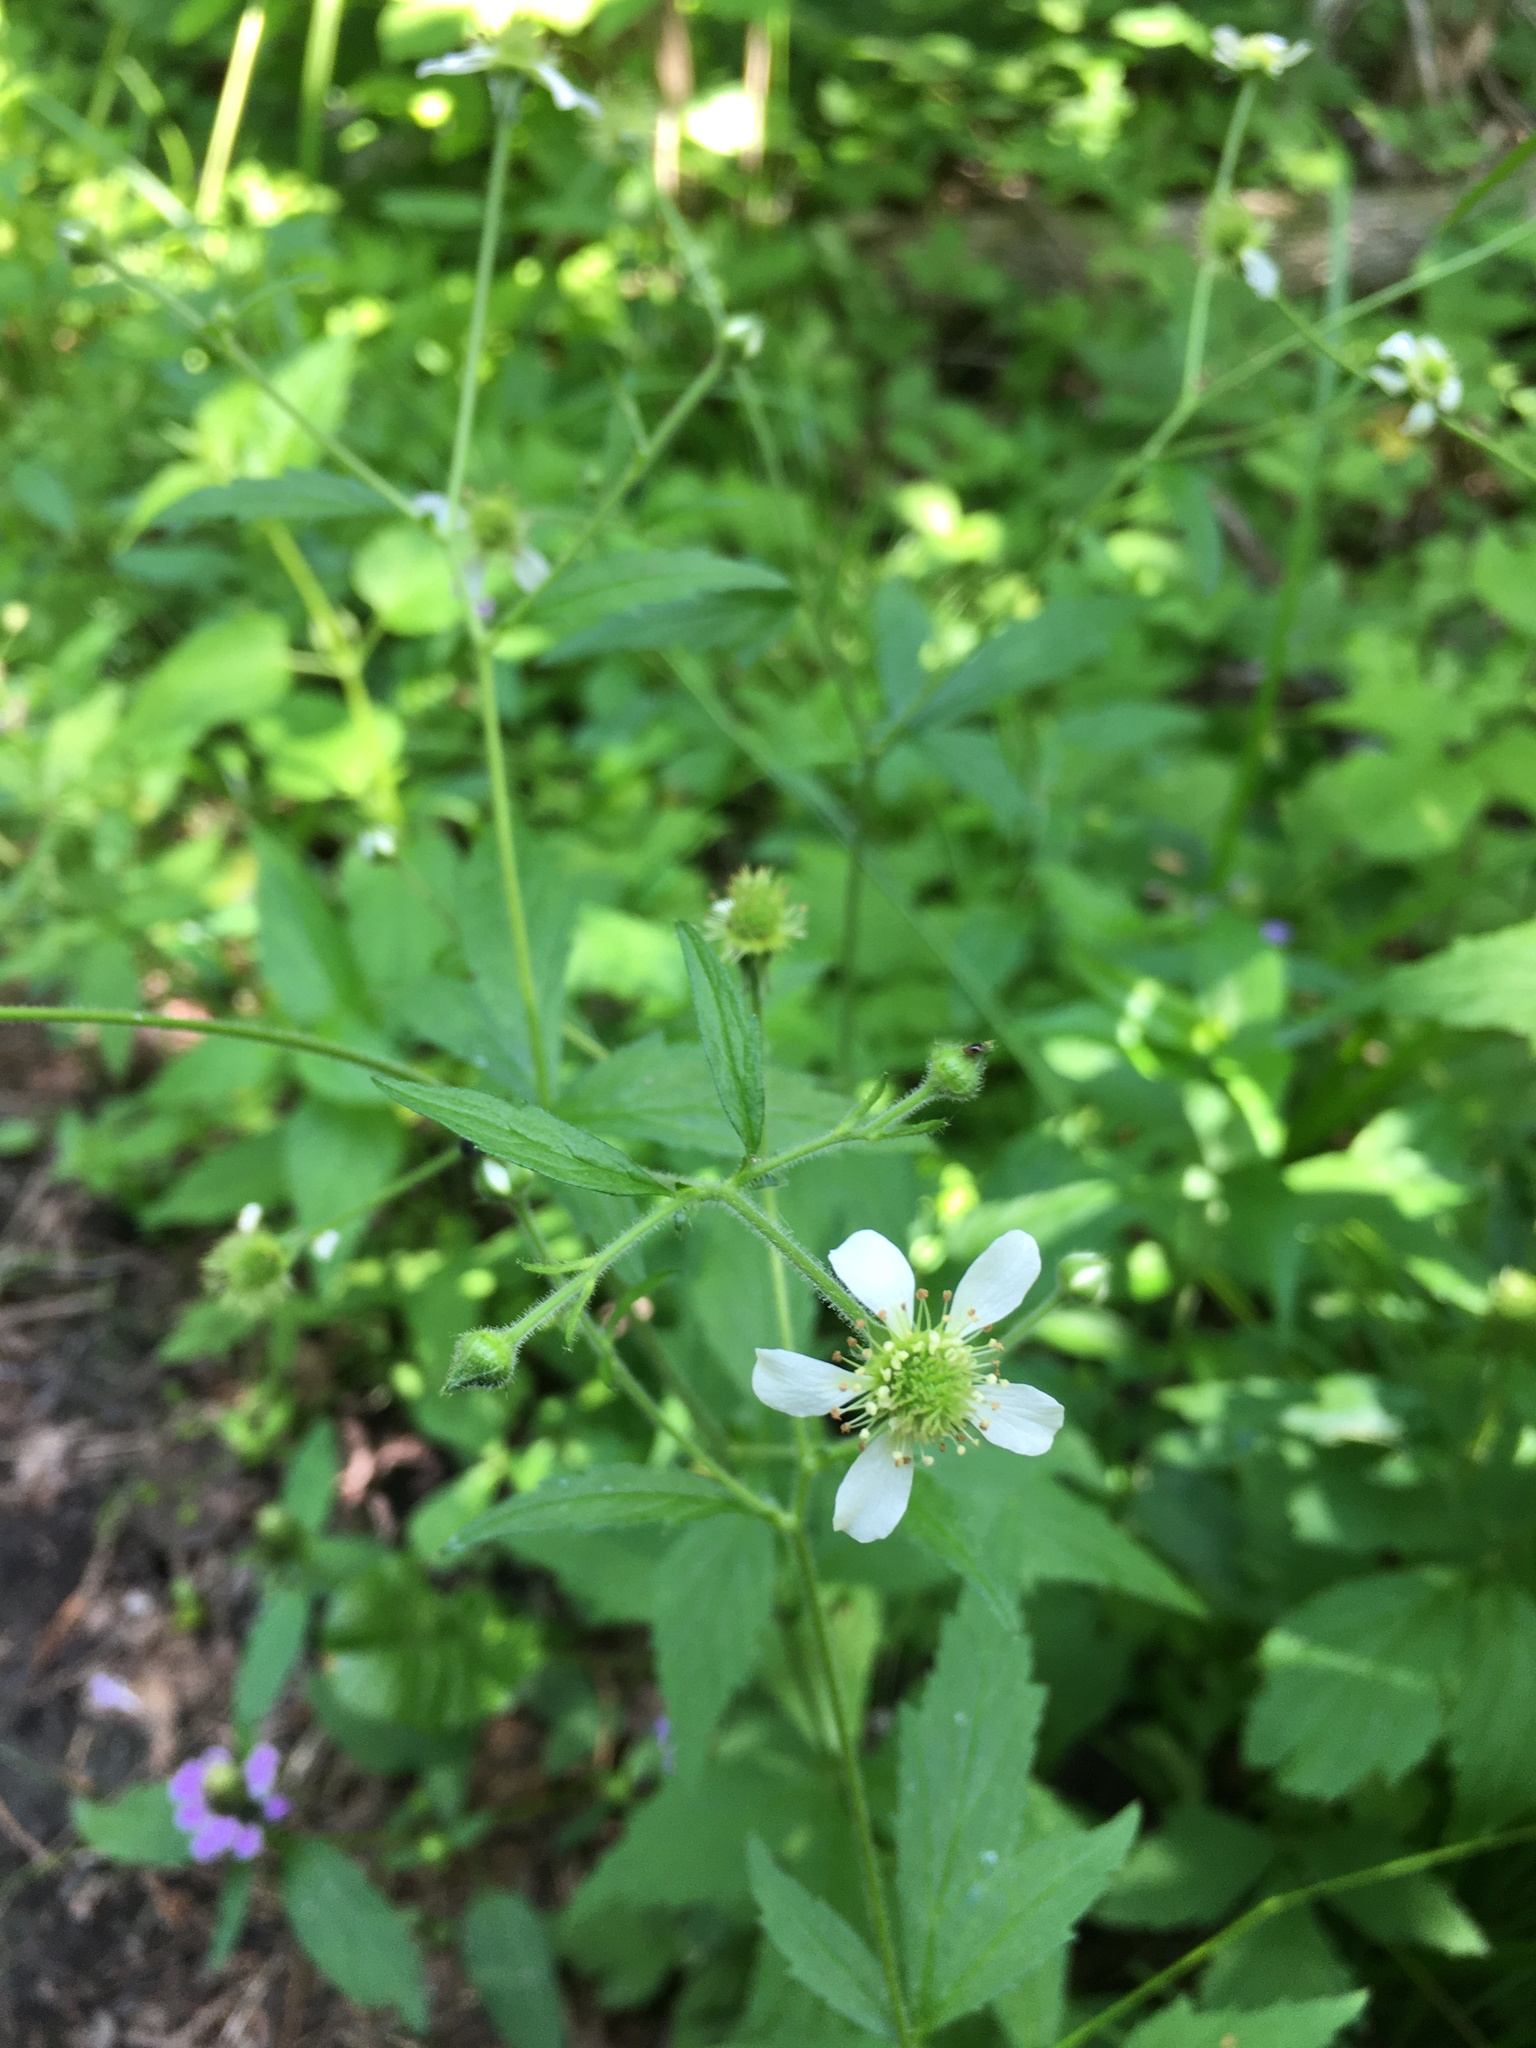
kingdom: Plantae
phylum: Tracheophyta
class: Magnoliopsida
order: Rosales
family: Rosaceae
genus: Geum
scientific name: Geum canadense
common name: White avens
